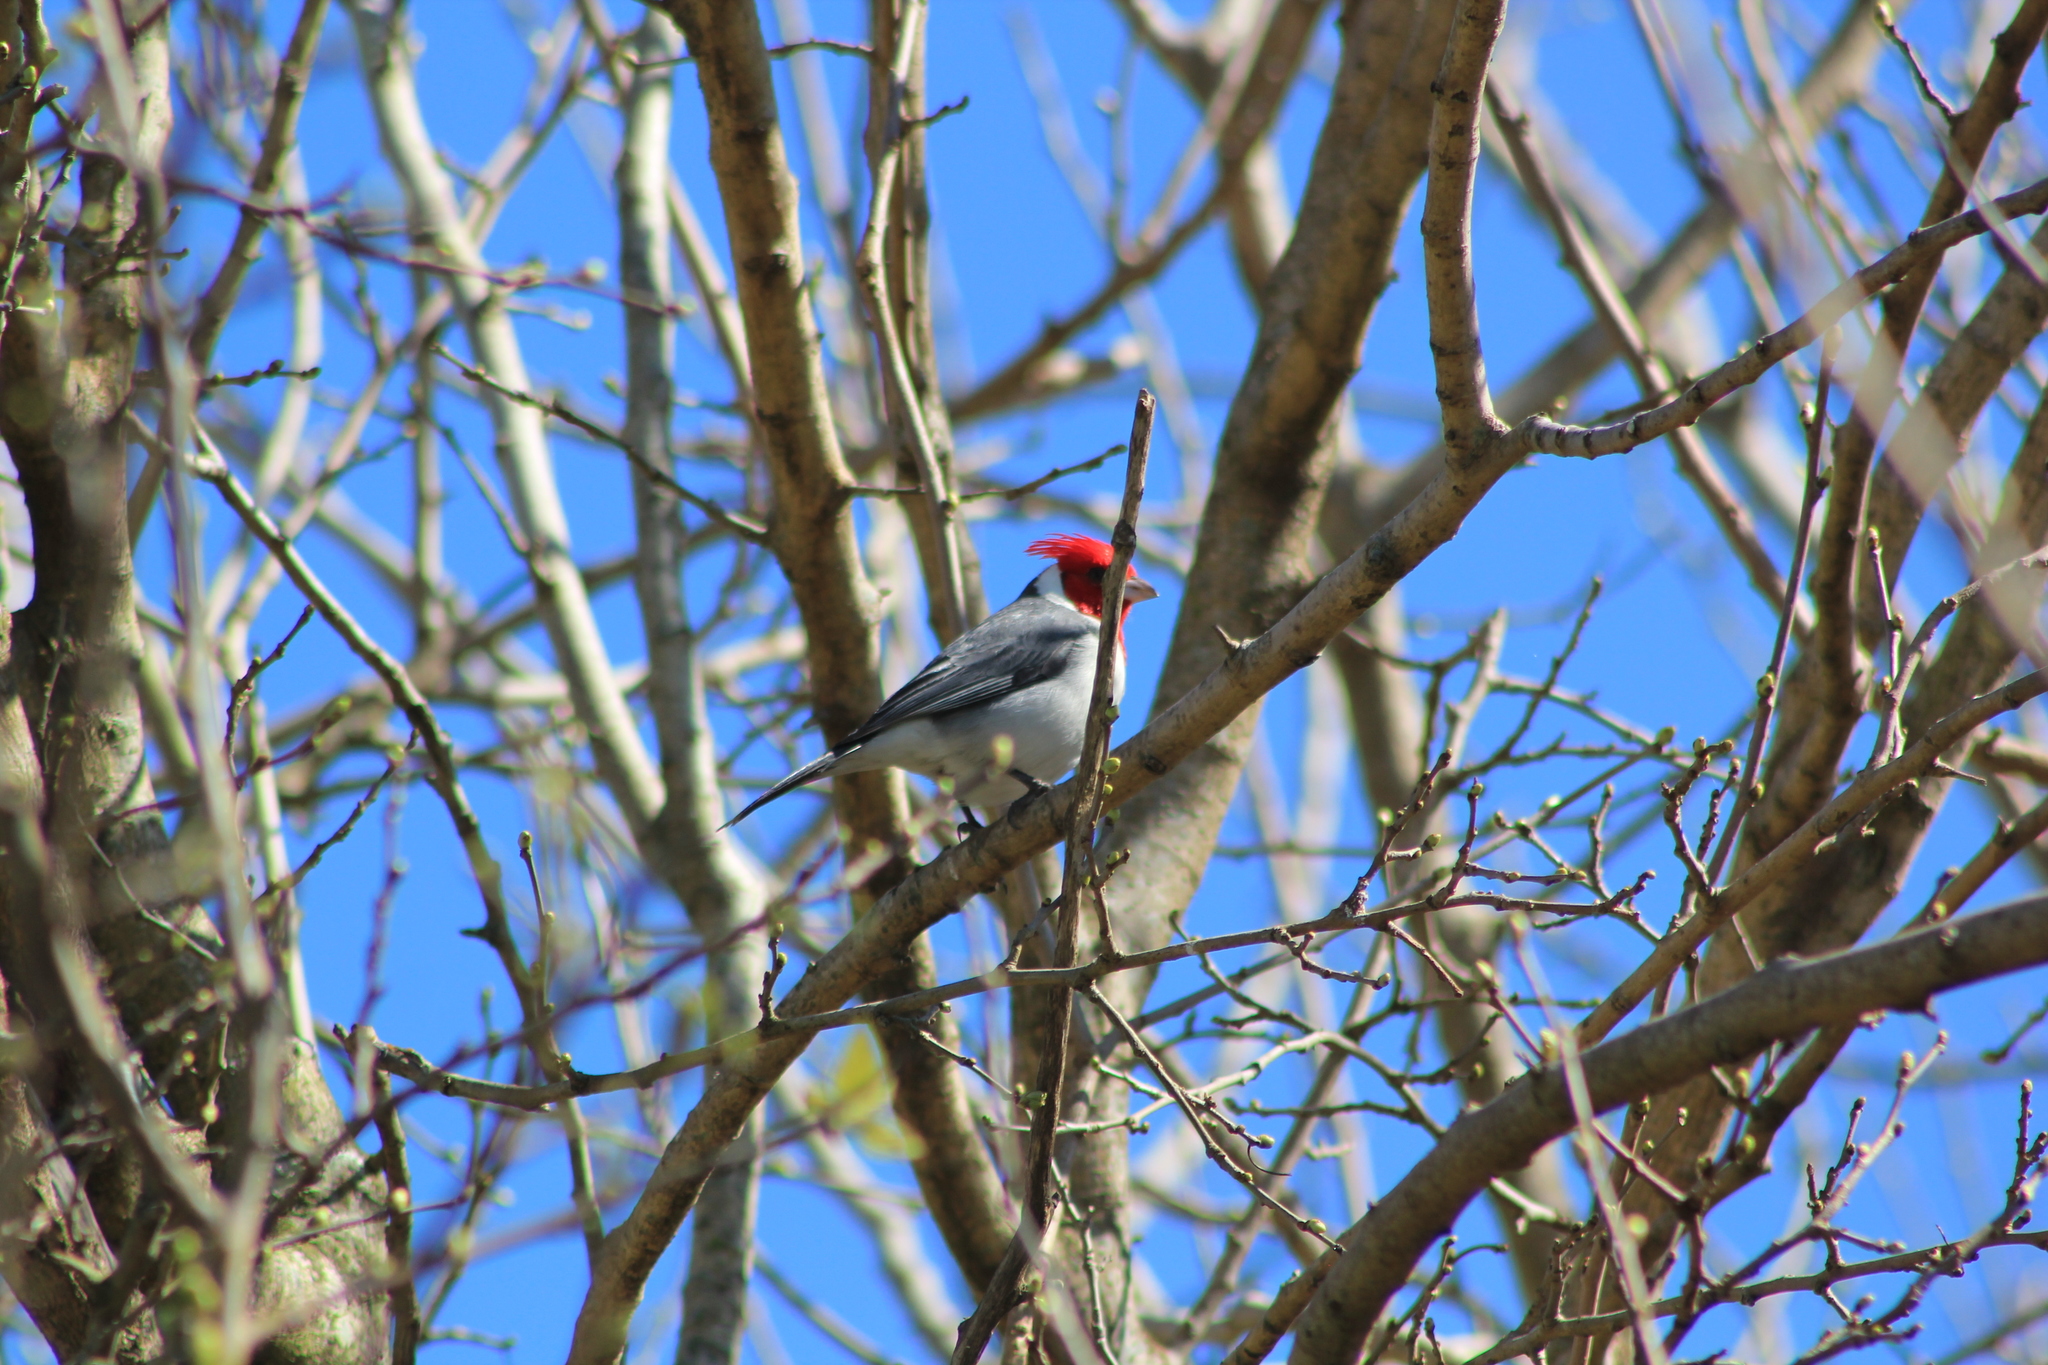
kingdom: Animalia
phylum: Chordata
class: Aves
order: Passeriformes
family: Thraupidae
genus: Paroaria
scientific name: Paroaria coronata
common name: Red-crested cardinal
